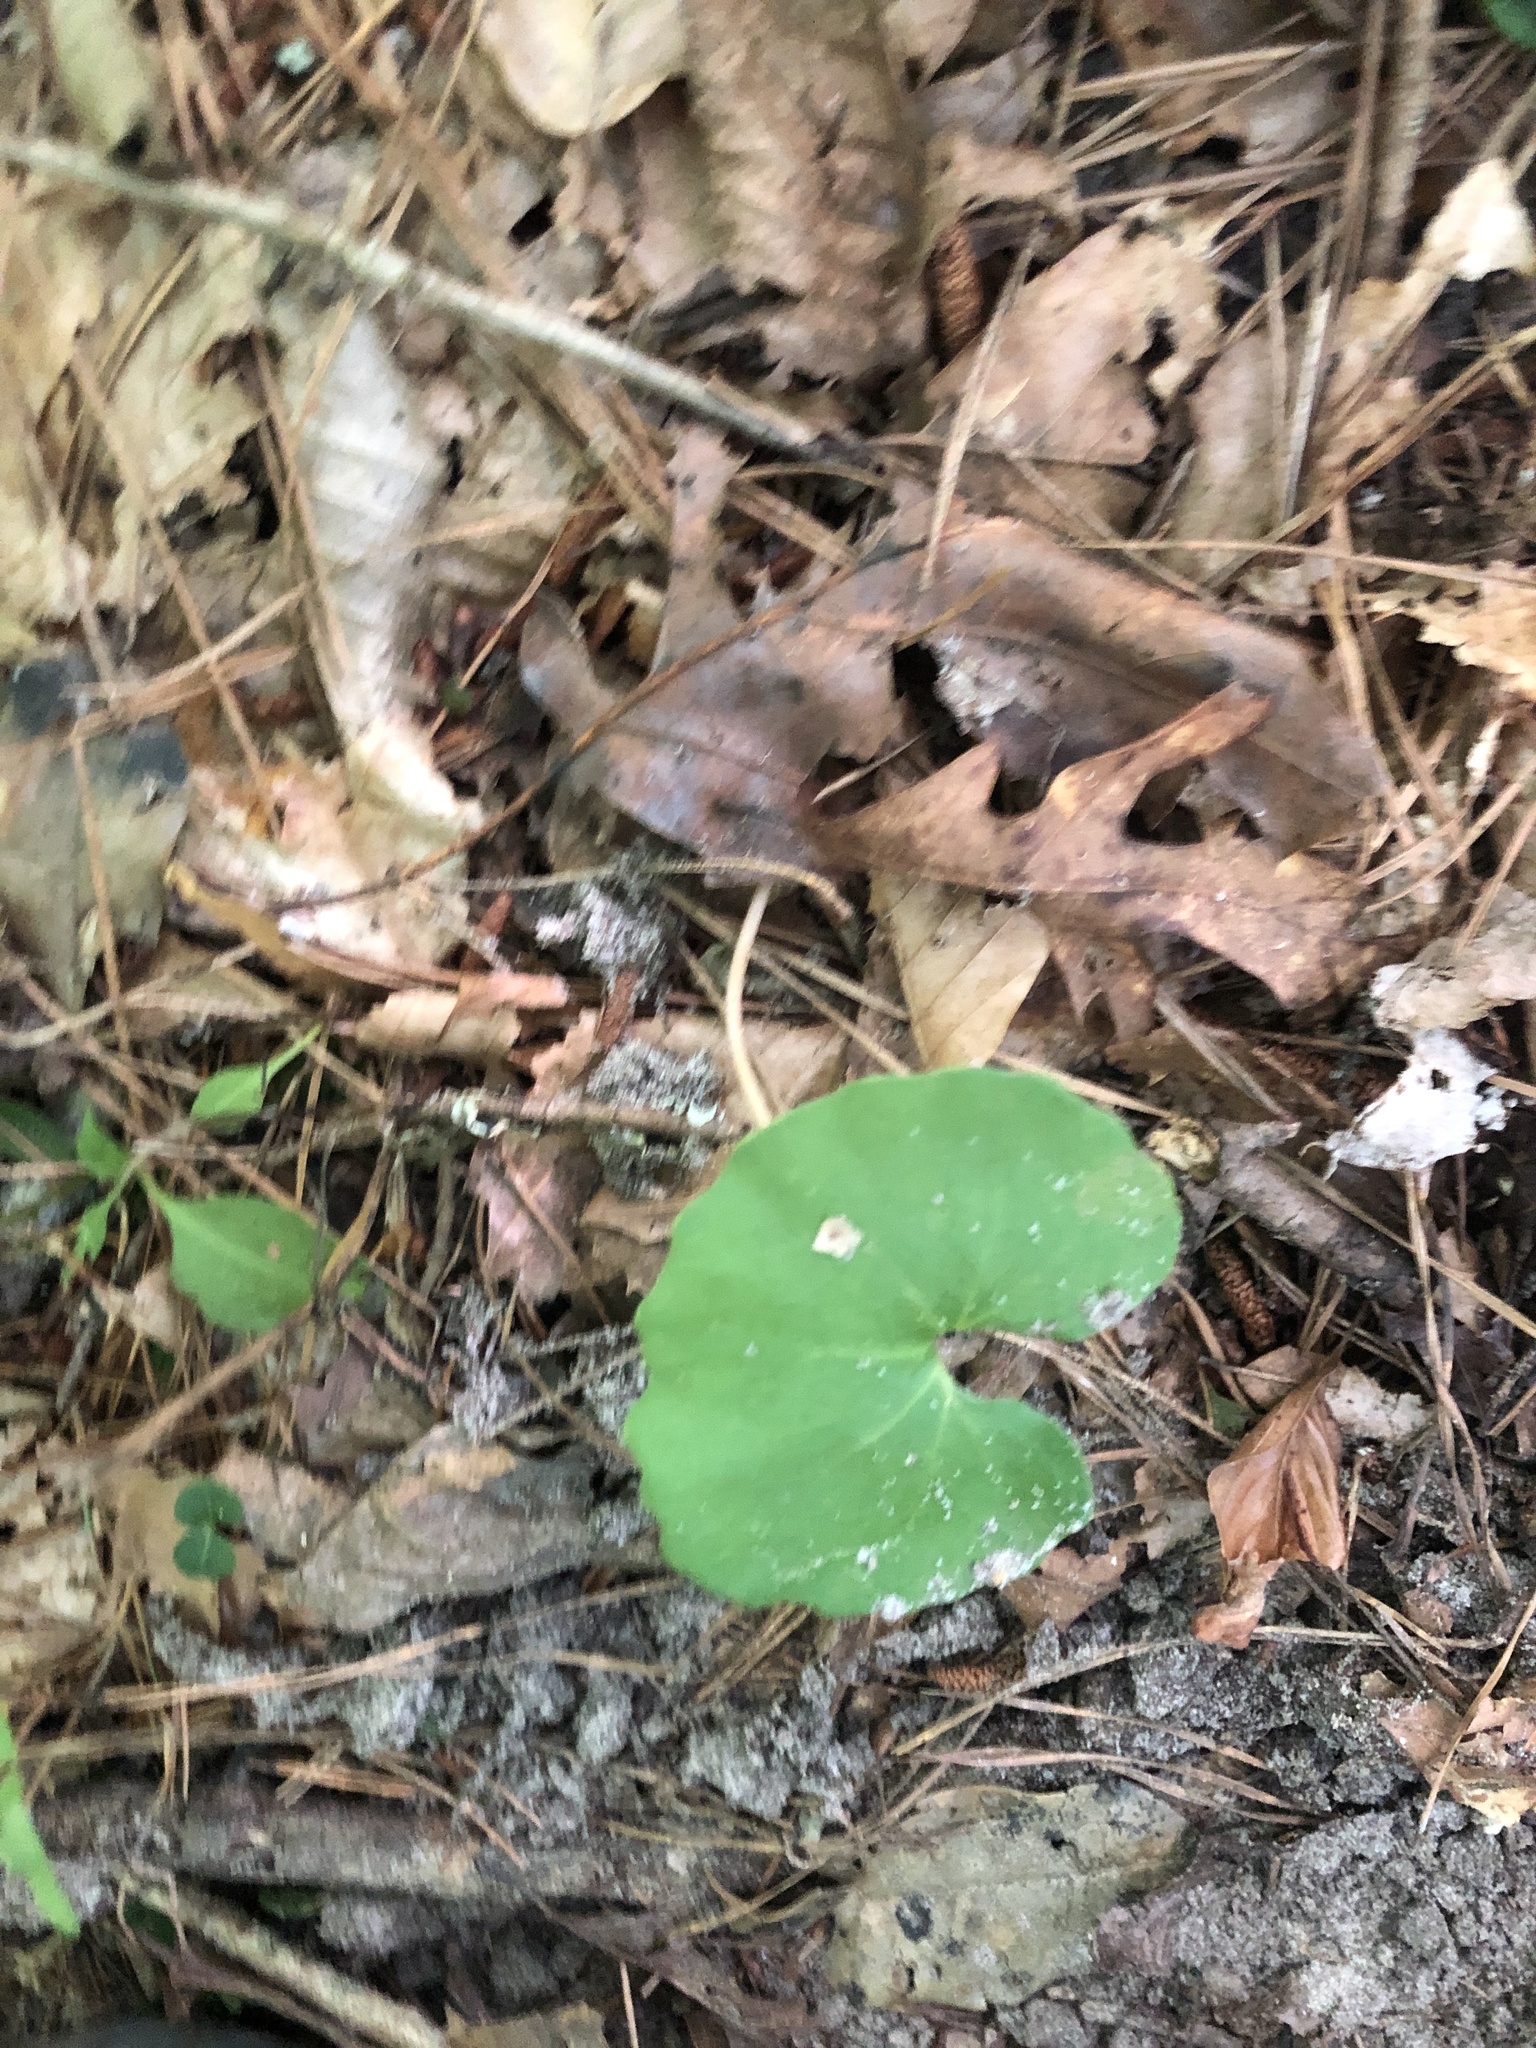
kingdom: Plantae
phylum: Tracheophyta
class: Magnoliopsida
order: Ranunculales
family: Papaveraceae
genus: Sanguinaria
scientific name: Sanguinaria canadensis
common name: Bloodroot
